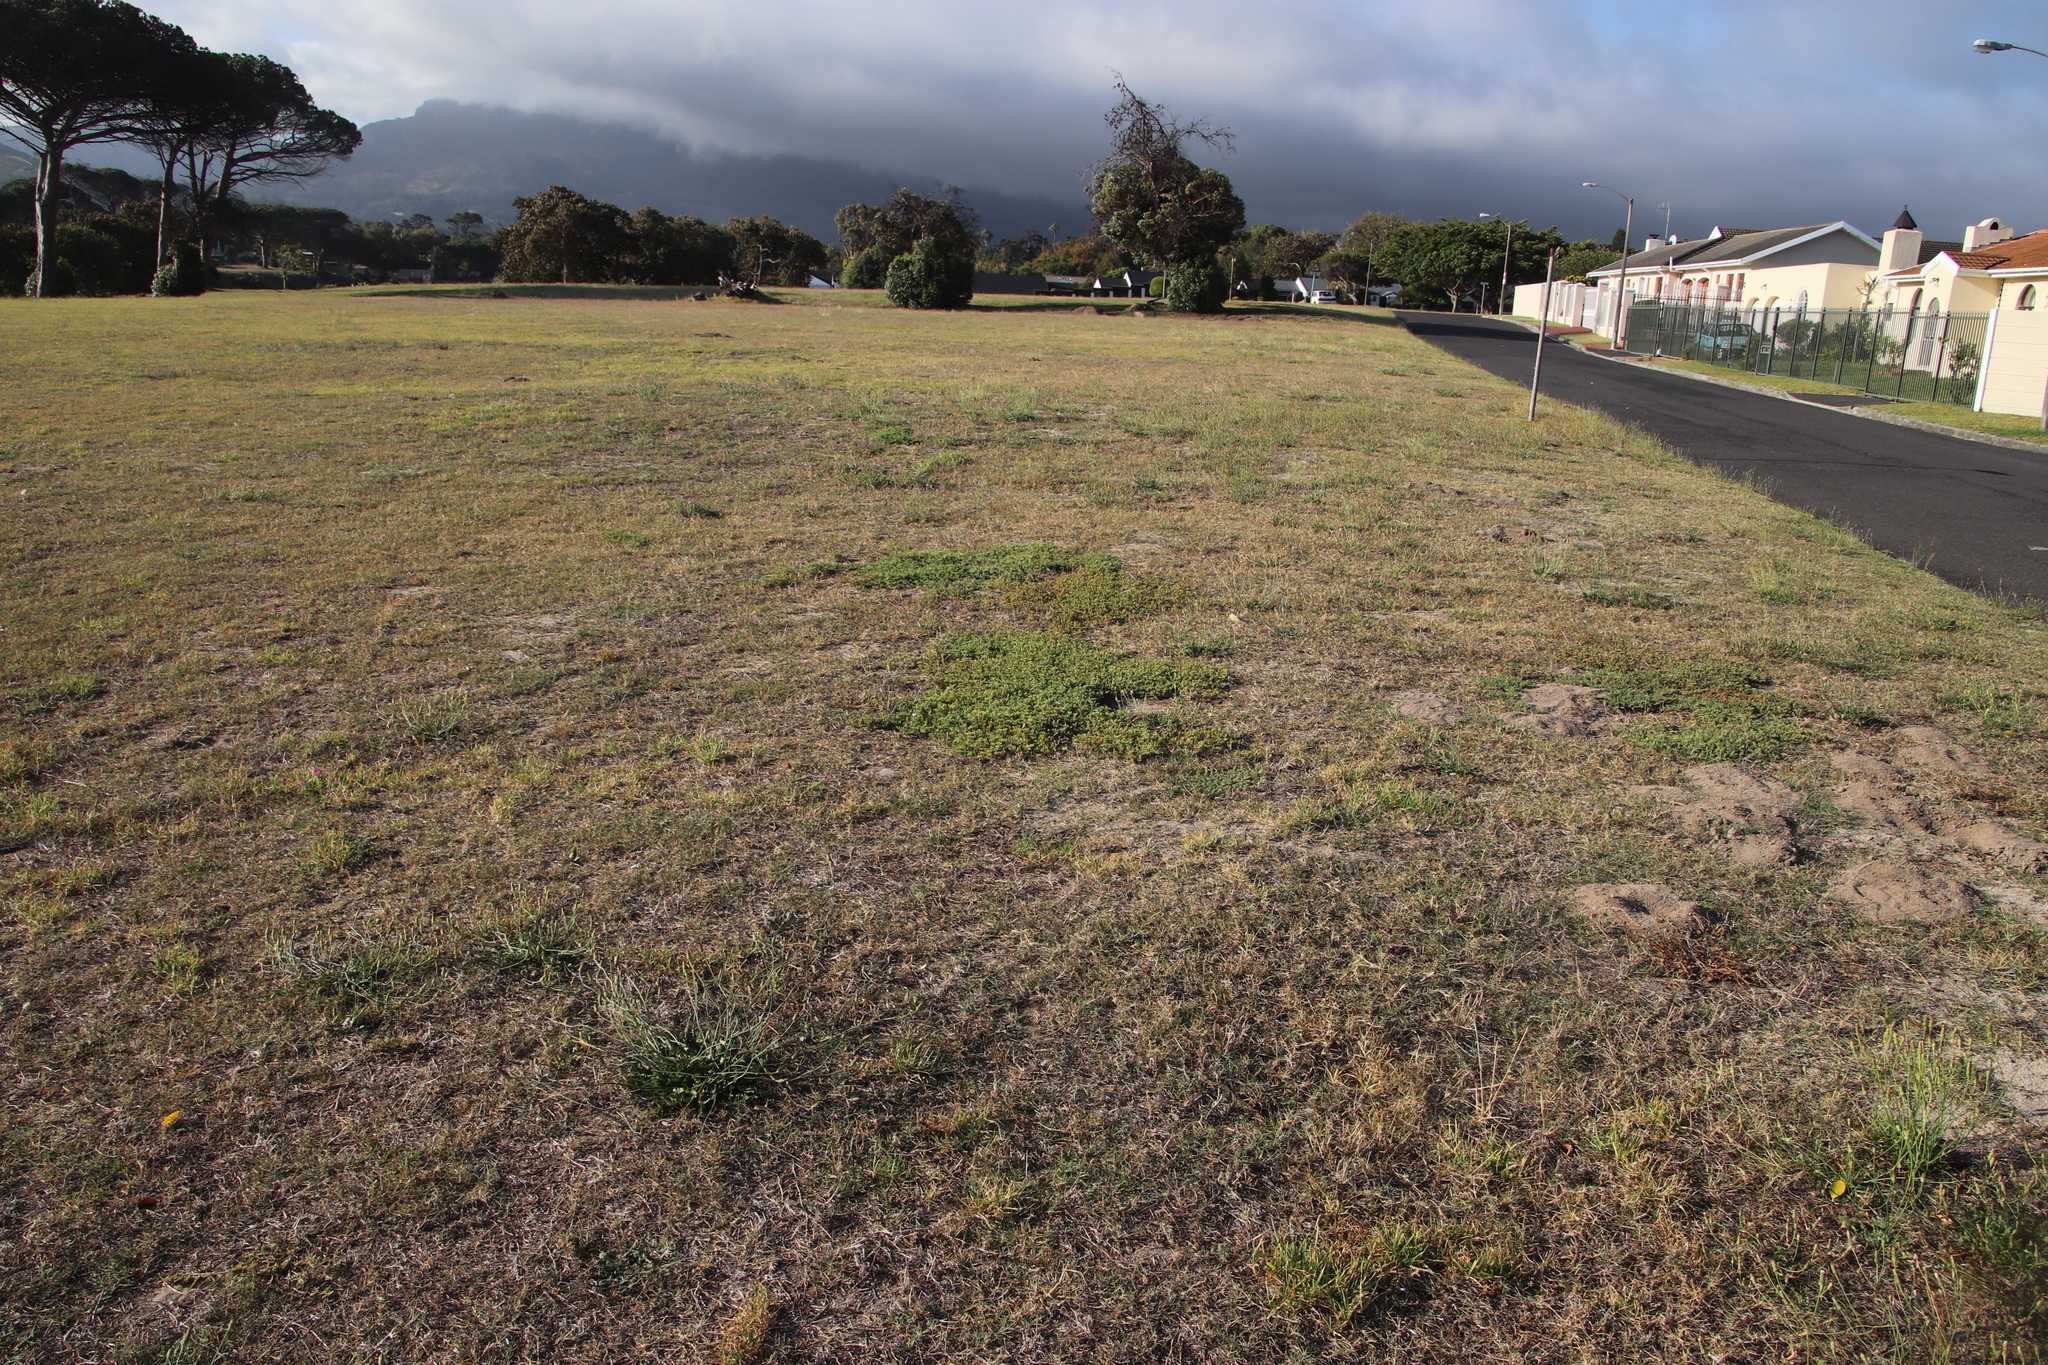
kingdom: Plantae
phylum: Tracheophyta
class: Magnoliopsida
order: Caryophyllales
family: Aizoaceae
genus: Aizoon
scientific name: Aizoon pubescens
